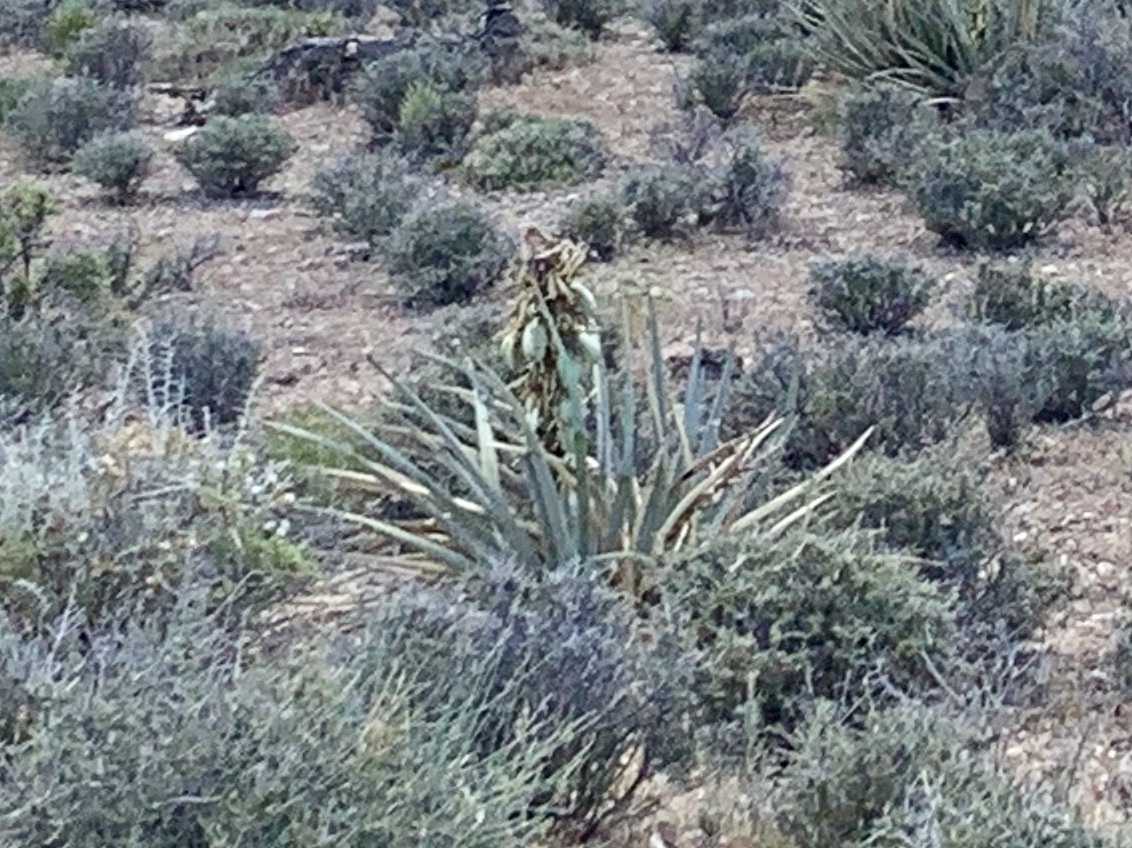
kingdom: Plantae
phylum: Tracheophyta
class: Liliopsida
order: Asparagales
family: Asparagaceae
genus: Yucca
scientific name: Yucca baccata
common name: Banana yucca
